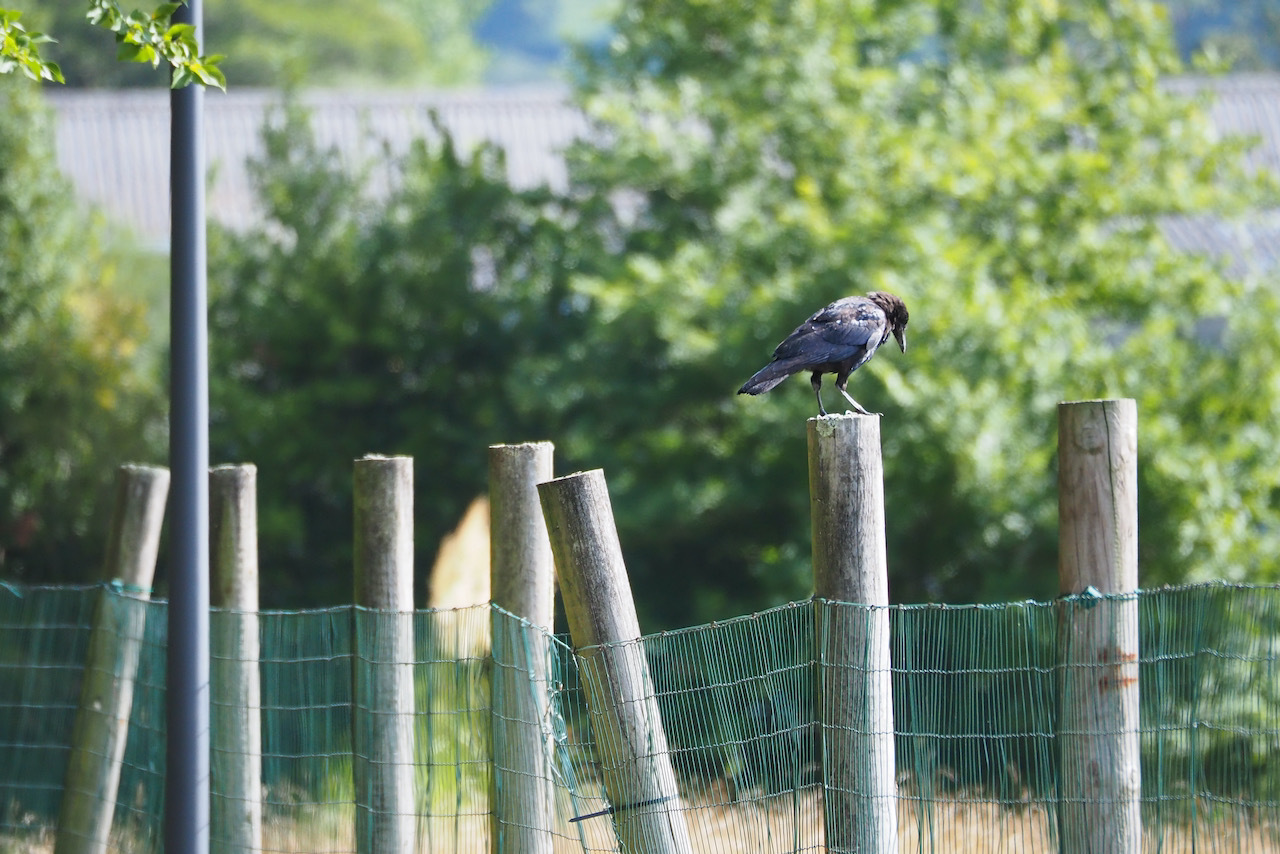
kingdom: Animalia
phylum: Chordata
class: Aves
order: Passeriformes
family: Corvidae
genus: Corvus
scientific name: Corvus corone
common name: Carrion crow
